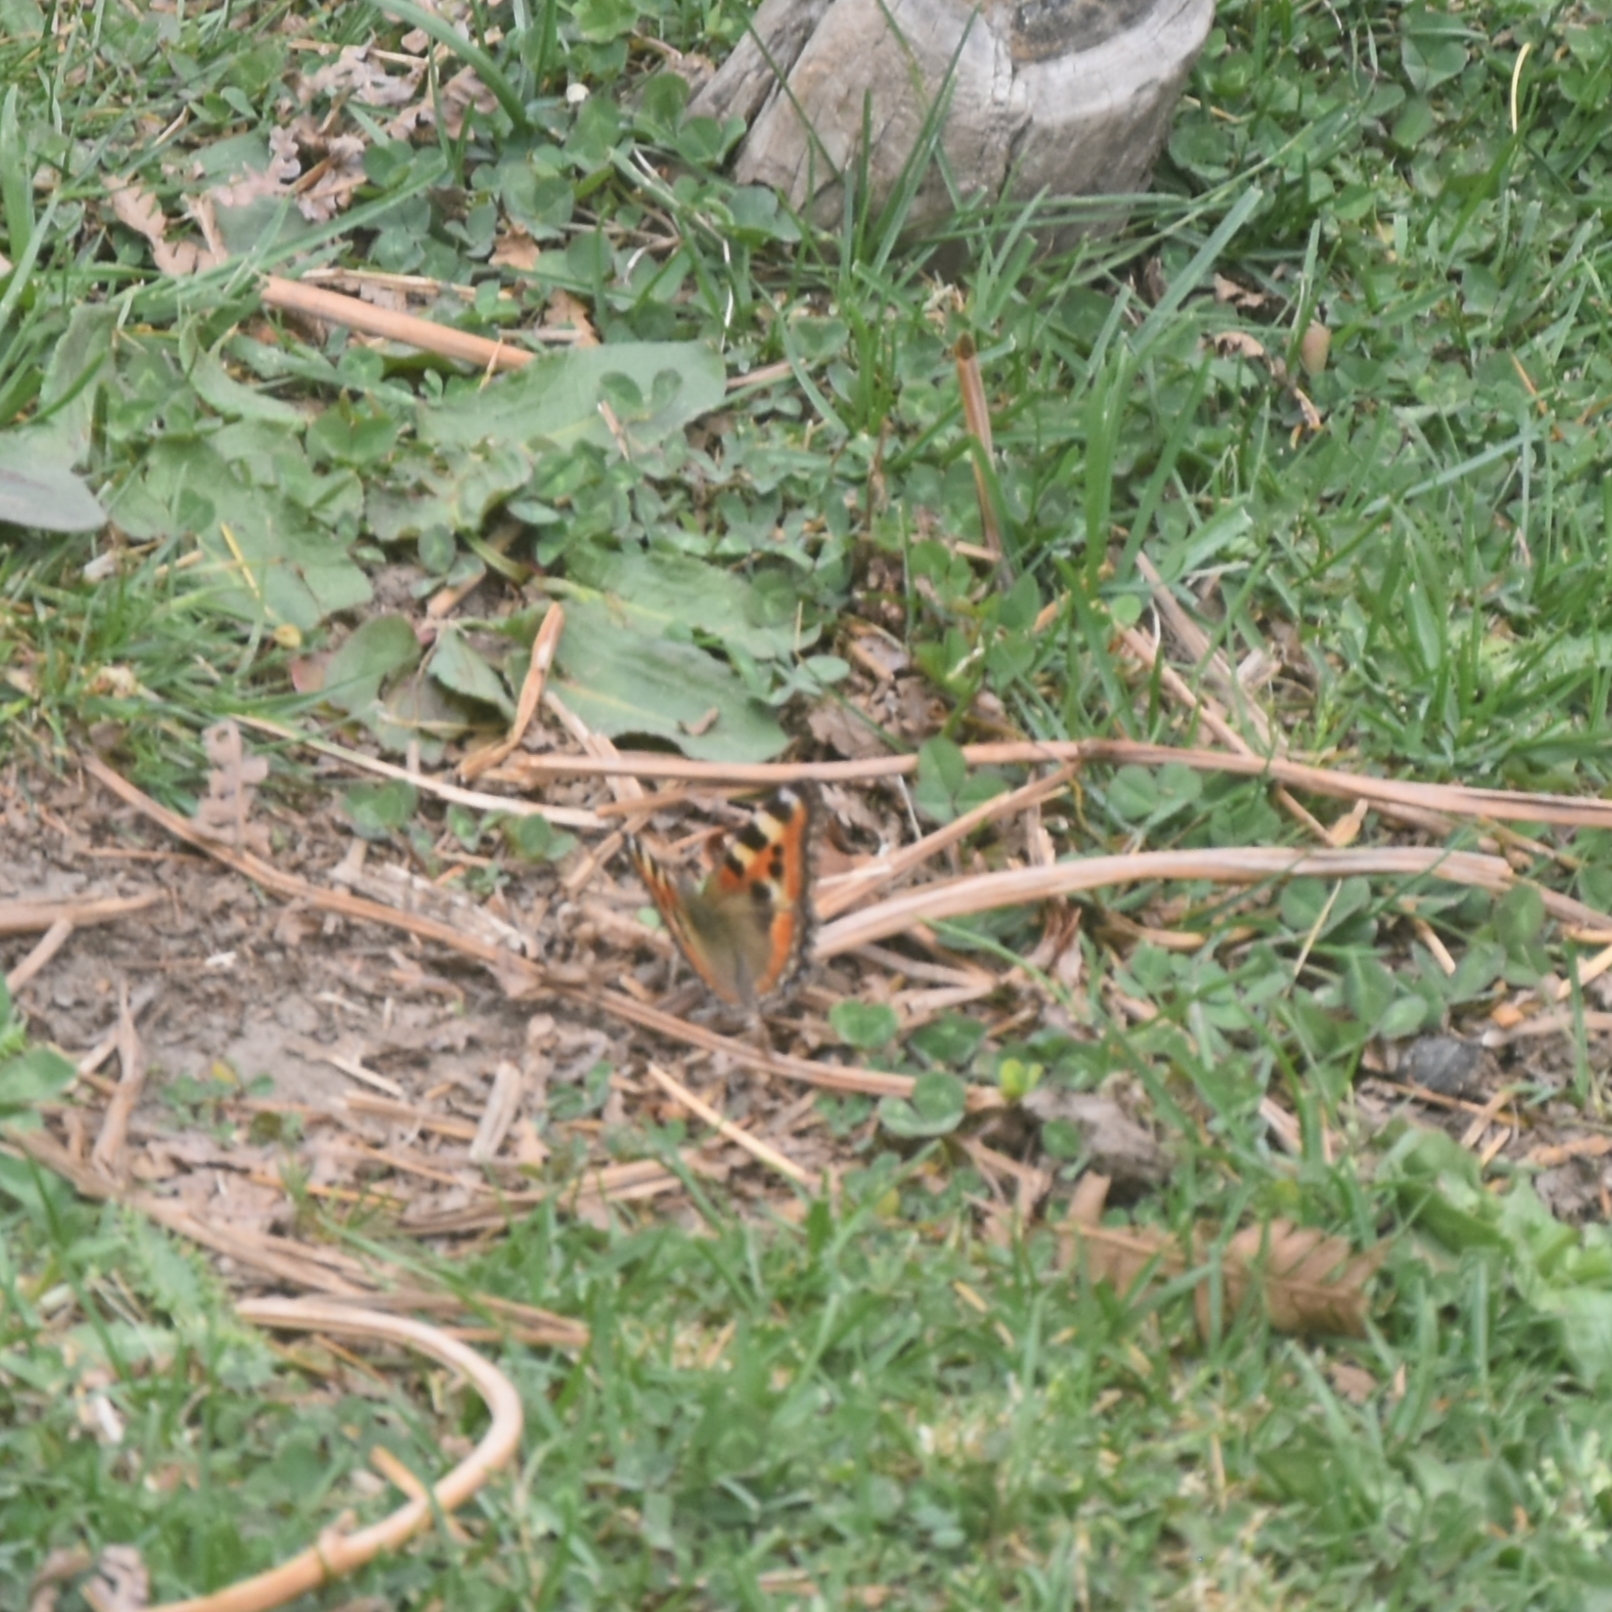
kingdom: Animalia
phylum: Arthropoda
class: Insecta
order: Lepidoptera
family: Nymphalidae
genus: Aglais
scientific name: Aglais caschmirensis
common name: Indian tortoiseshell
